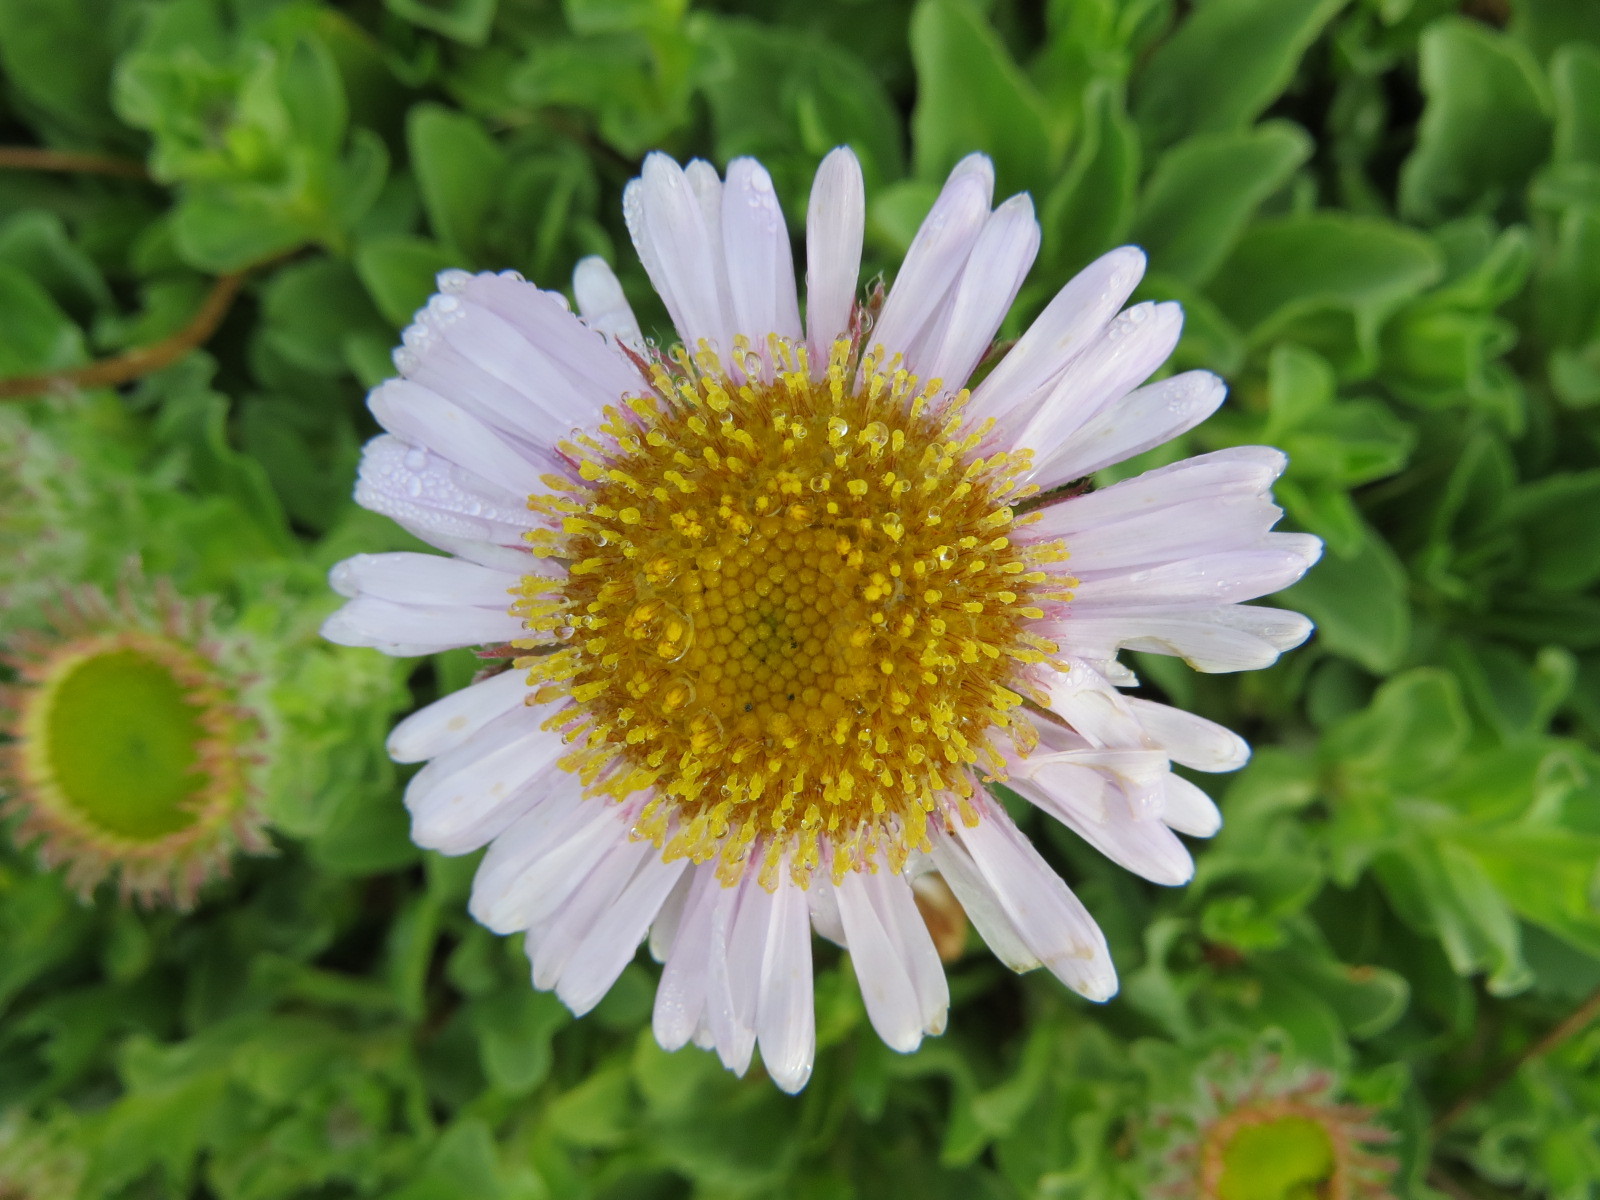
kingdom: Plantae
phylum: Tracheophyta
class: Magnoliopsida
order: Asterales
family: Asteraceae
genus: Erigeron
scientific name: Erigeron glaucus
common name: Seaside daisy
